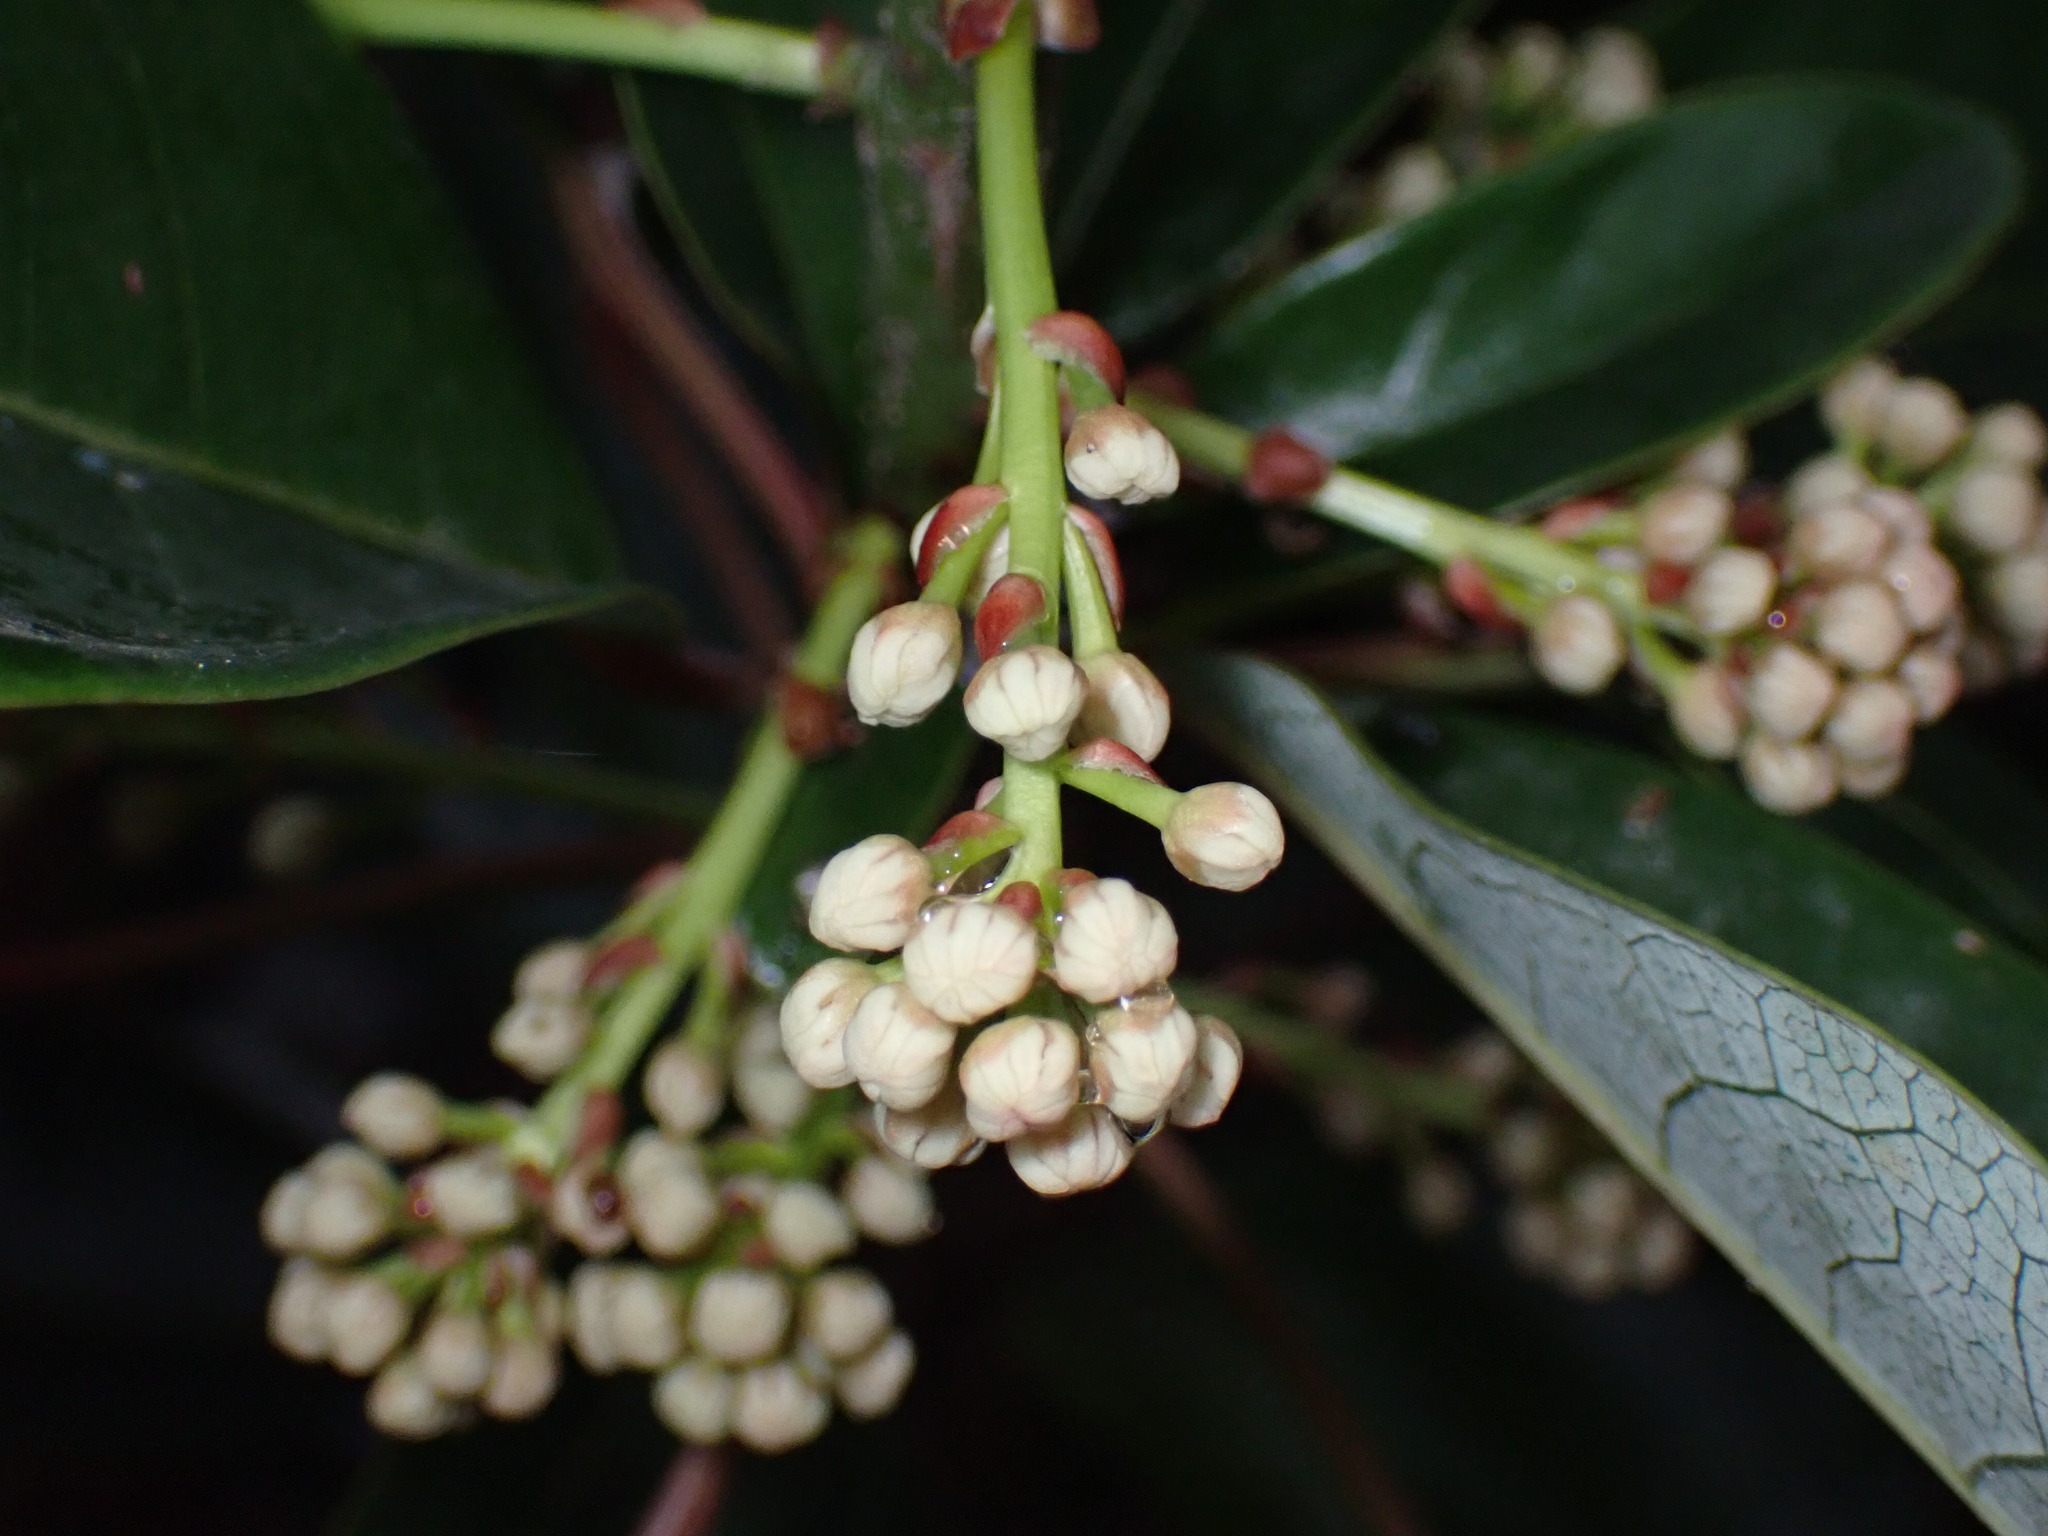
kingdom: Plantae
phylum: Tracheophyta
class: Magnoliopsida
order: Saxifragales
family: Daphniphyllaceae
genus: Daphniphyllum
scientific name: Daphniphyllum calycinum
